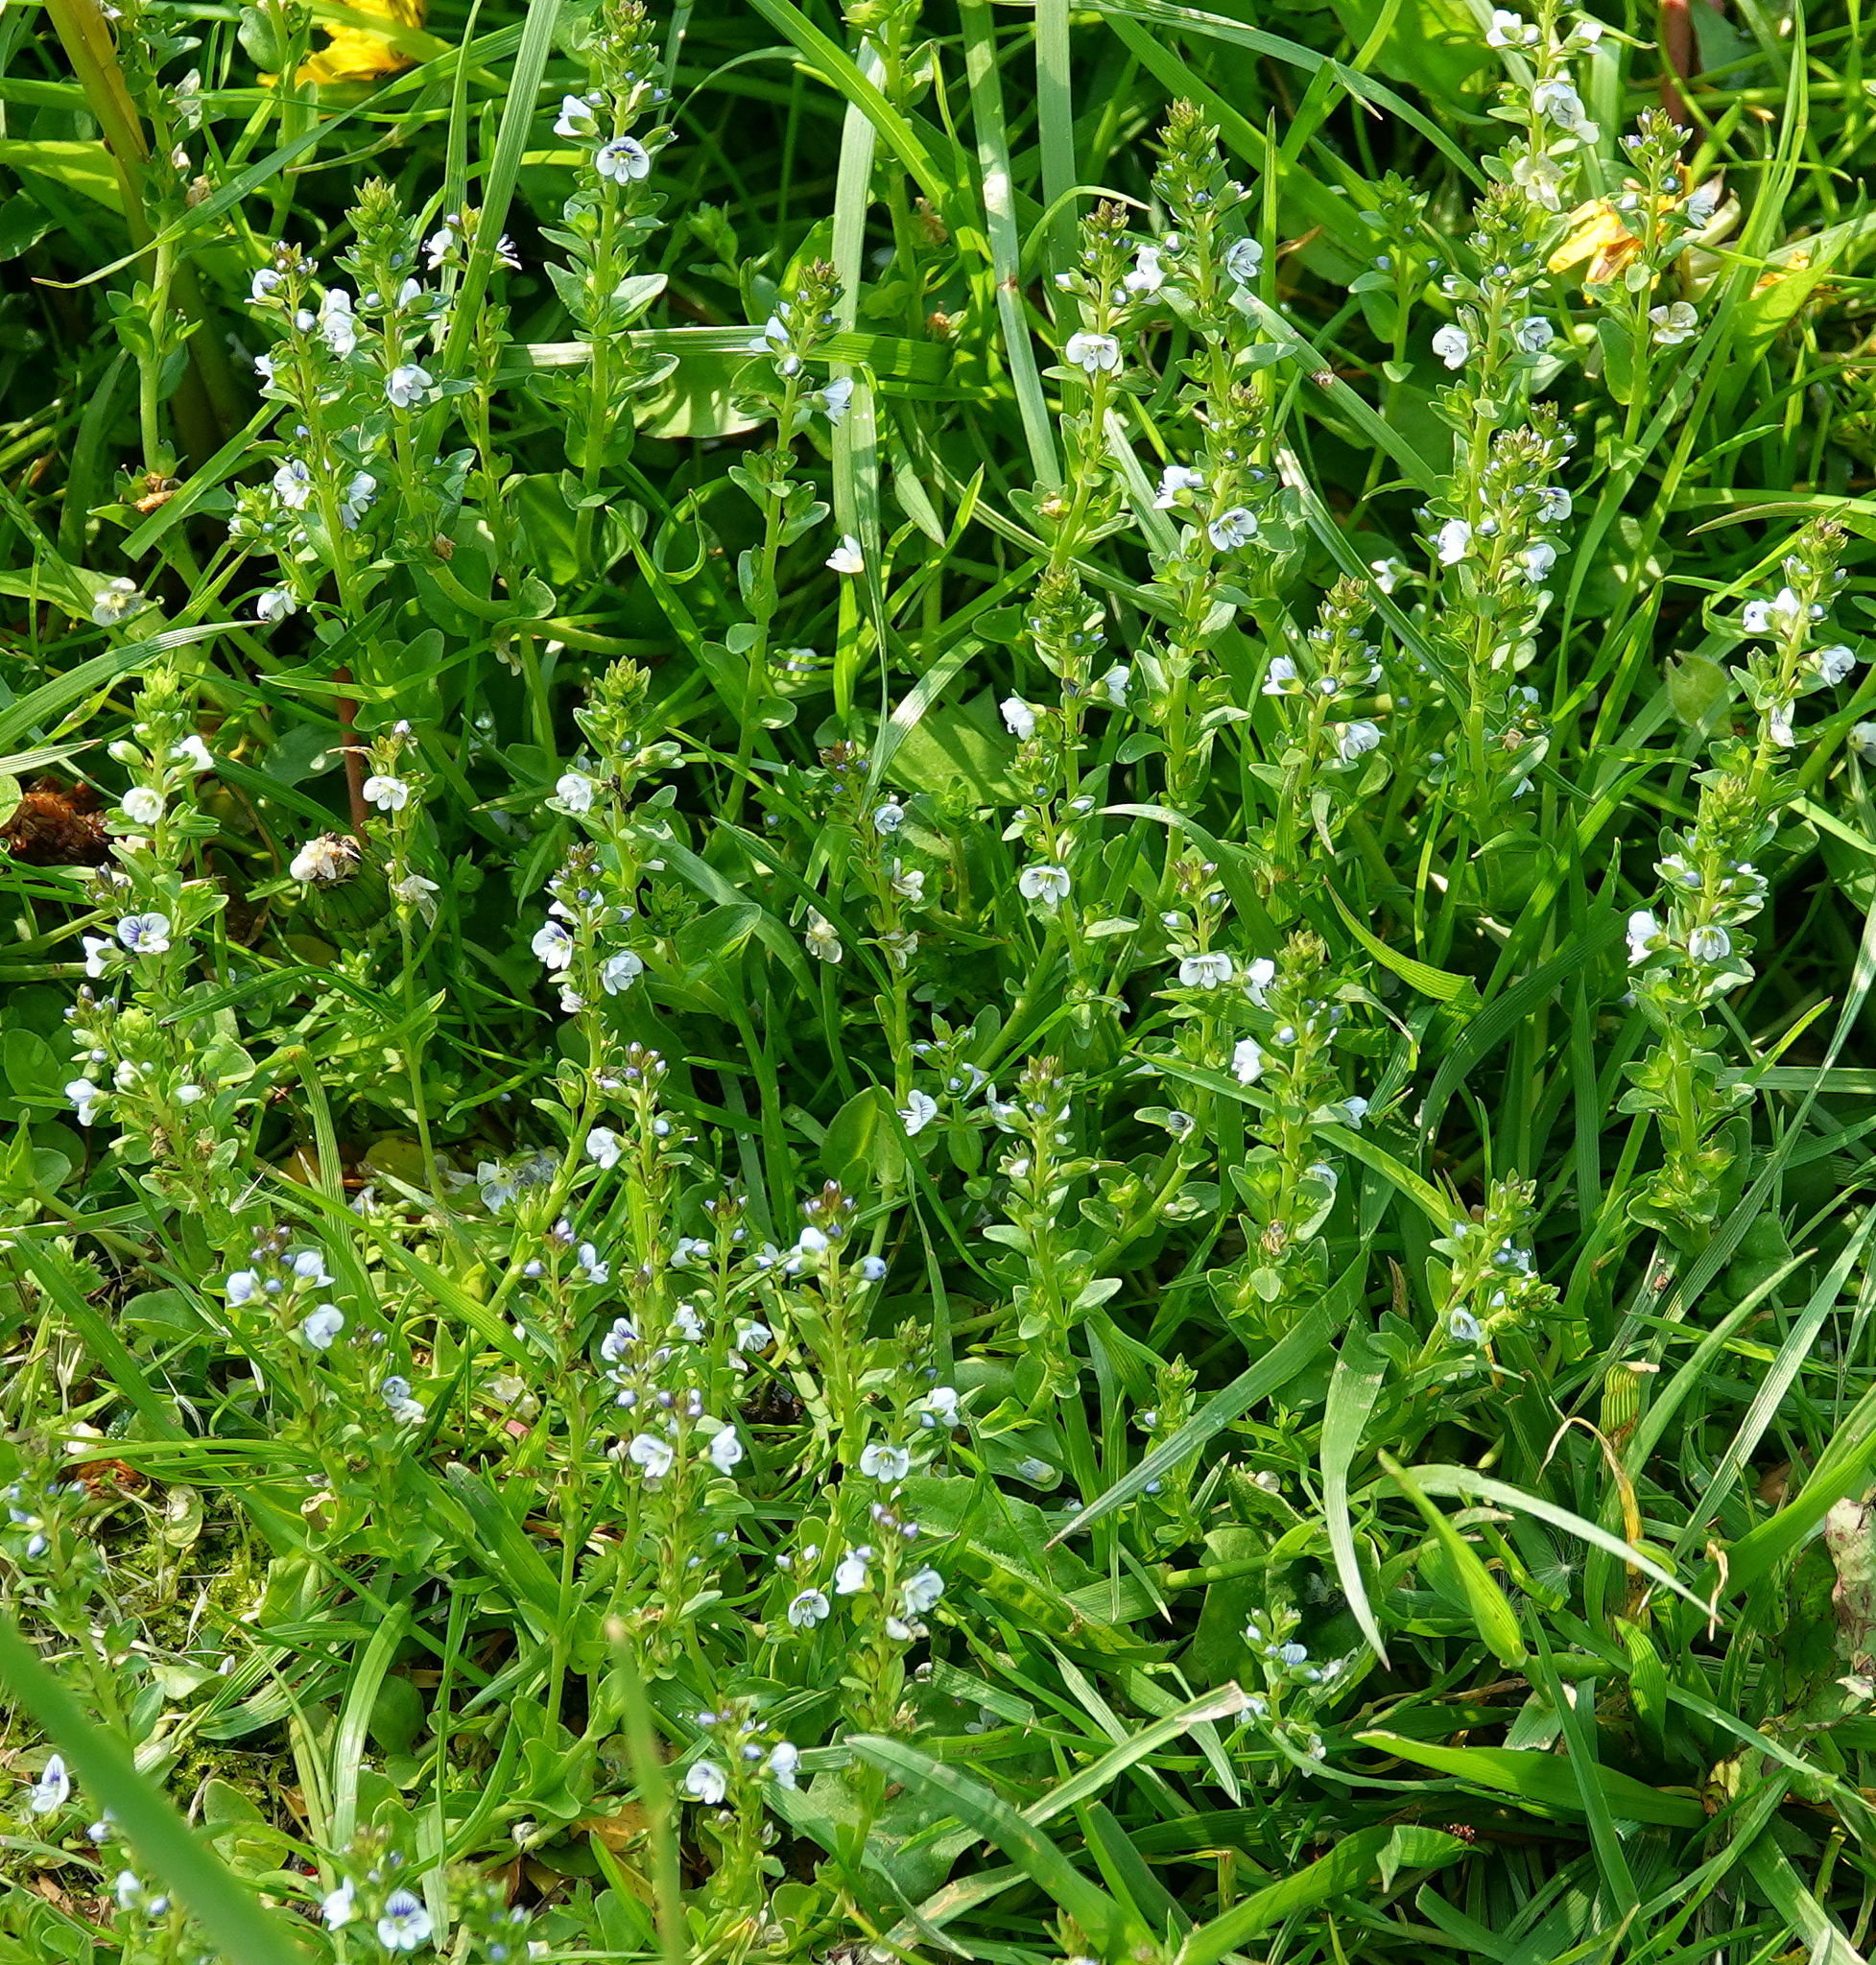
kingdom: Plantae
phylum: Tracheophyta
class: Magnoliopsida
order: Lamiales
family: Plantaginaceae
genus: Veronica
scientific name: Veronica serpyllifolia
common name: Thyme-leaved speedwell
